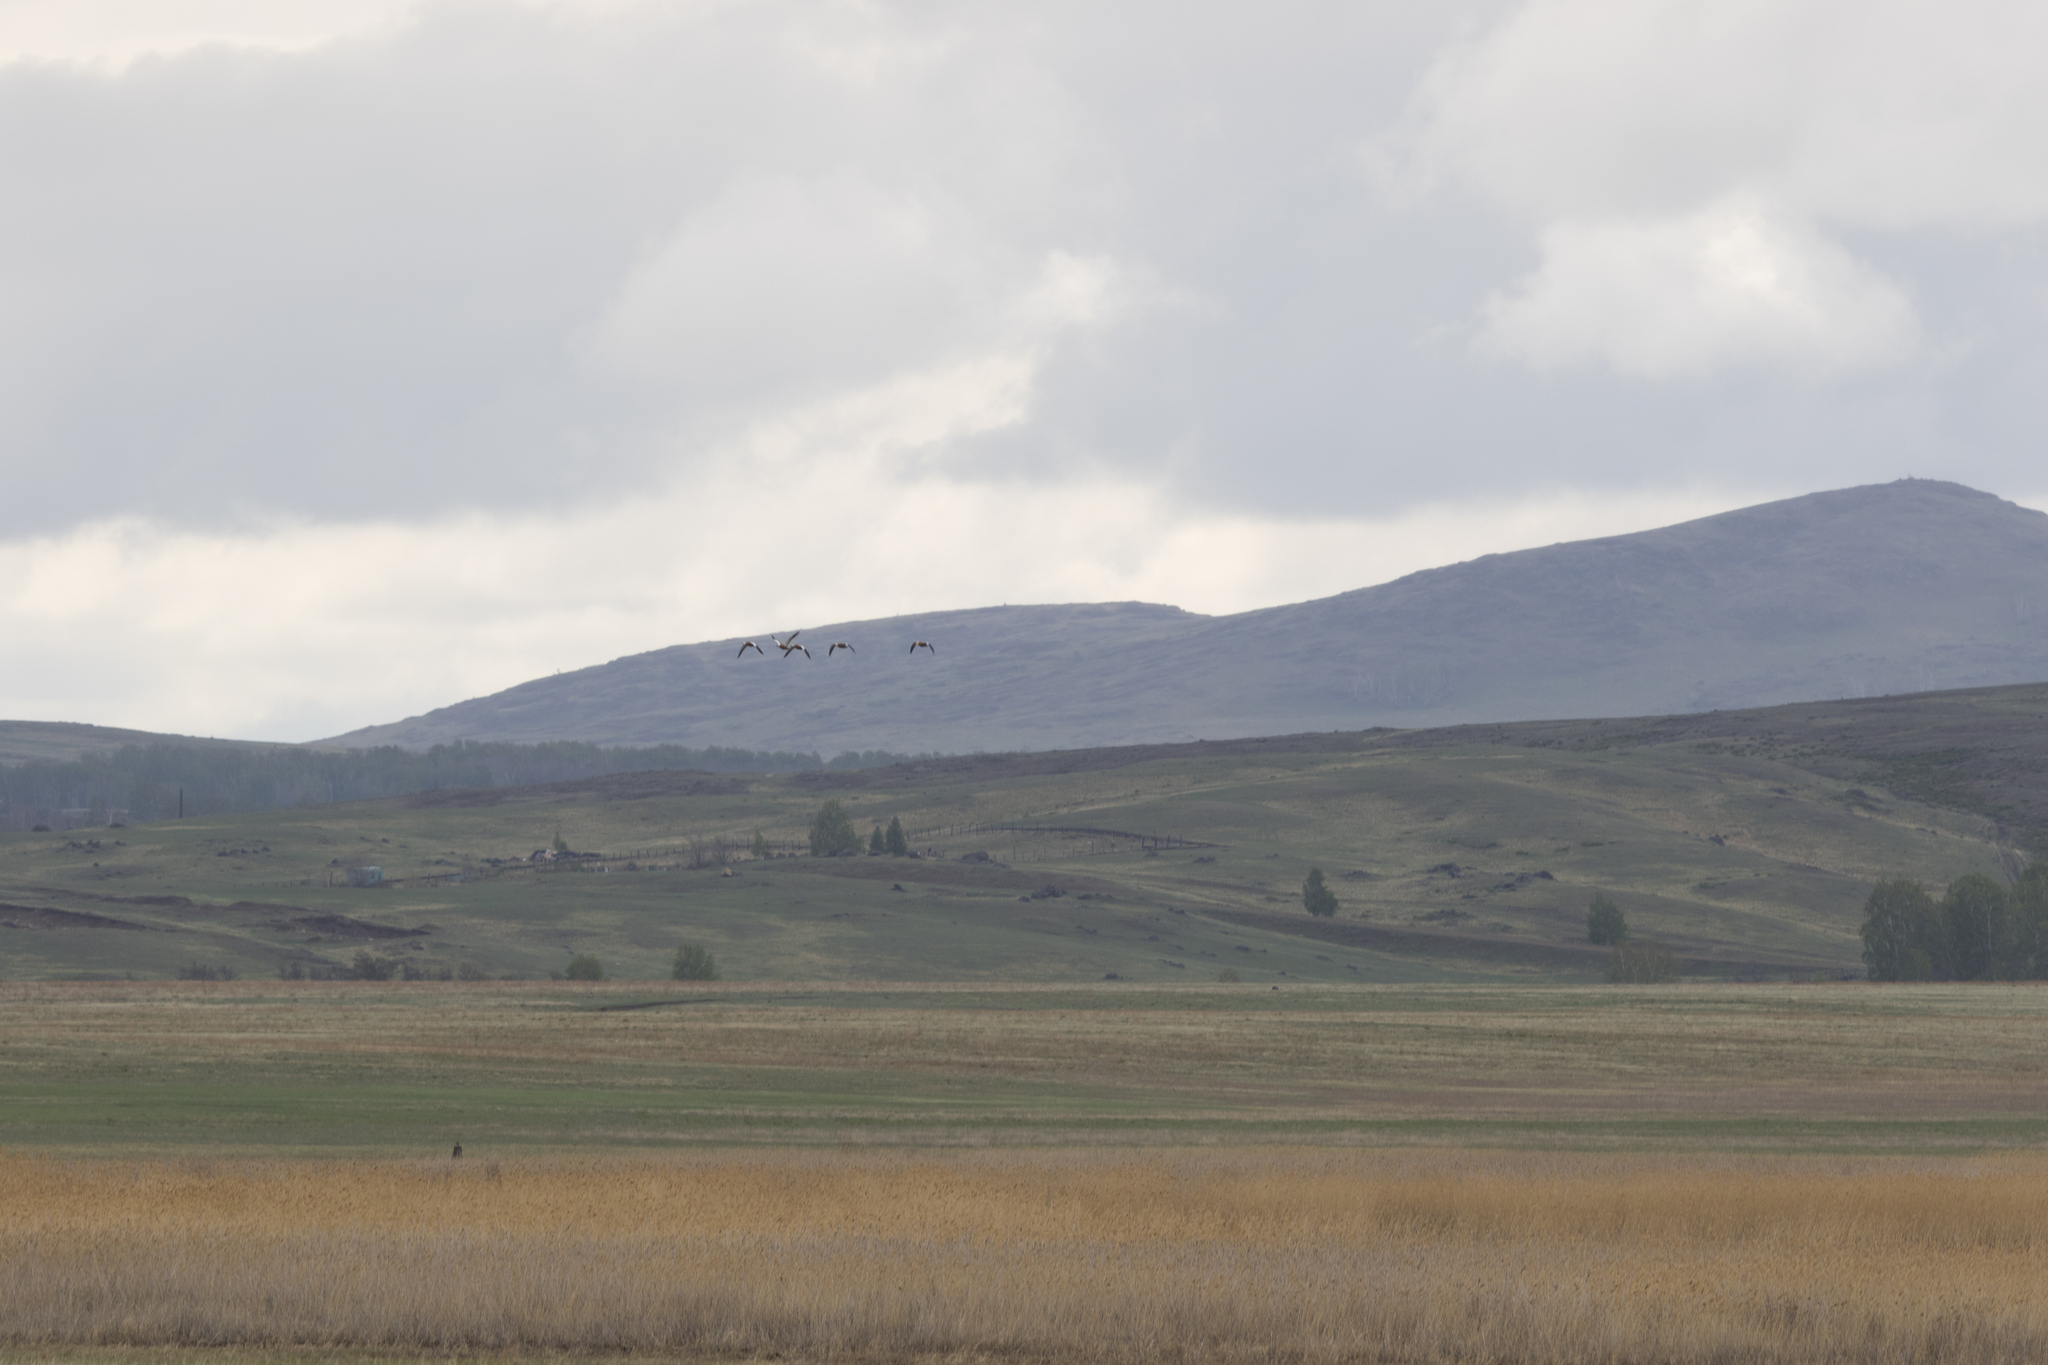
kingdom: Animalia
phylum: Chordata
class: Aves
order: Anseriformes
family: Anatidae
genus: Tadorna
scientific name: Tadorna ferruginea
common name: Ruddy shelduck
